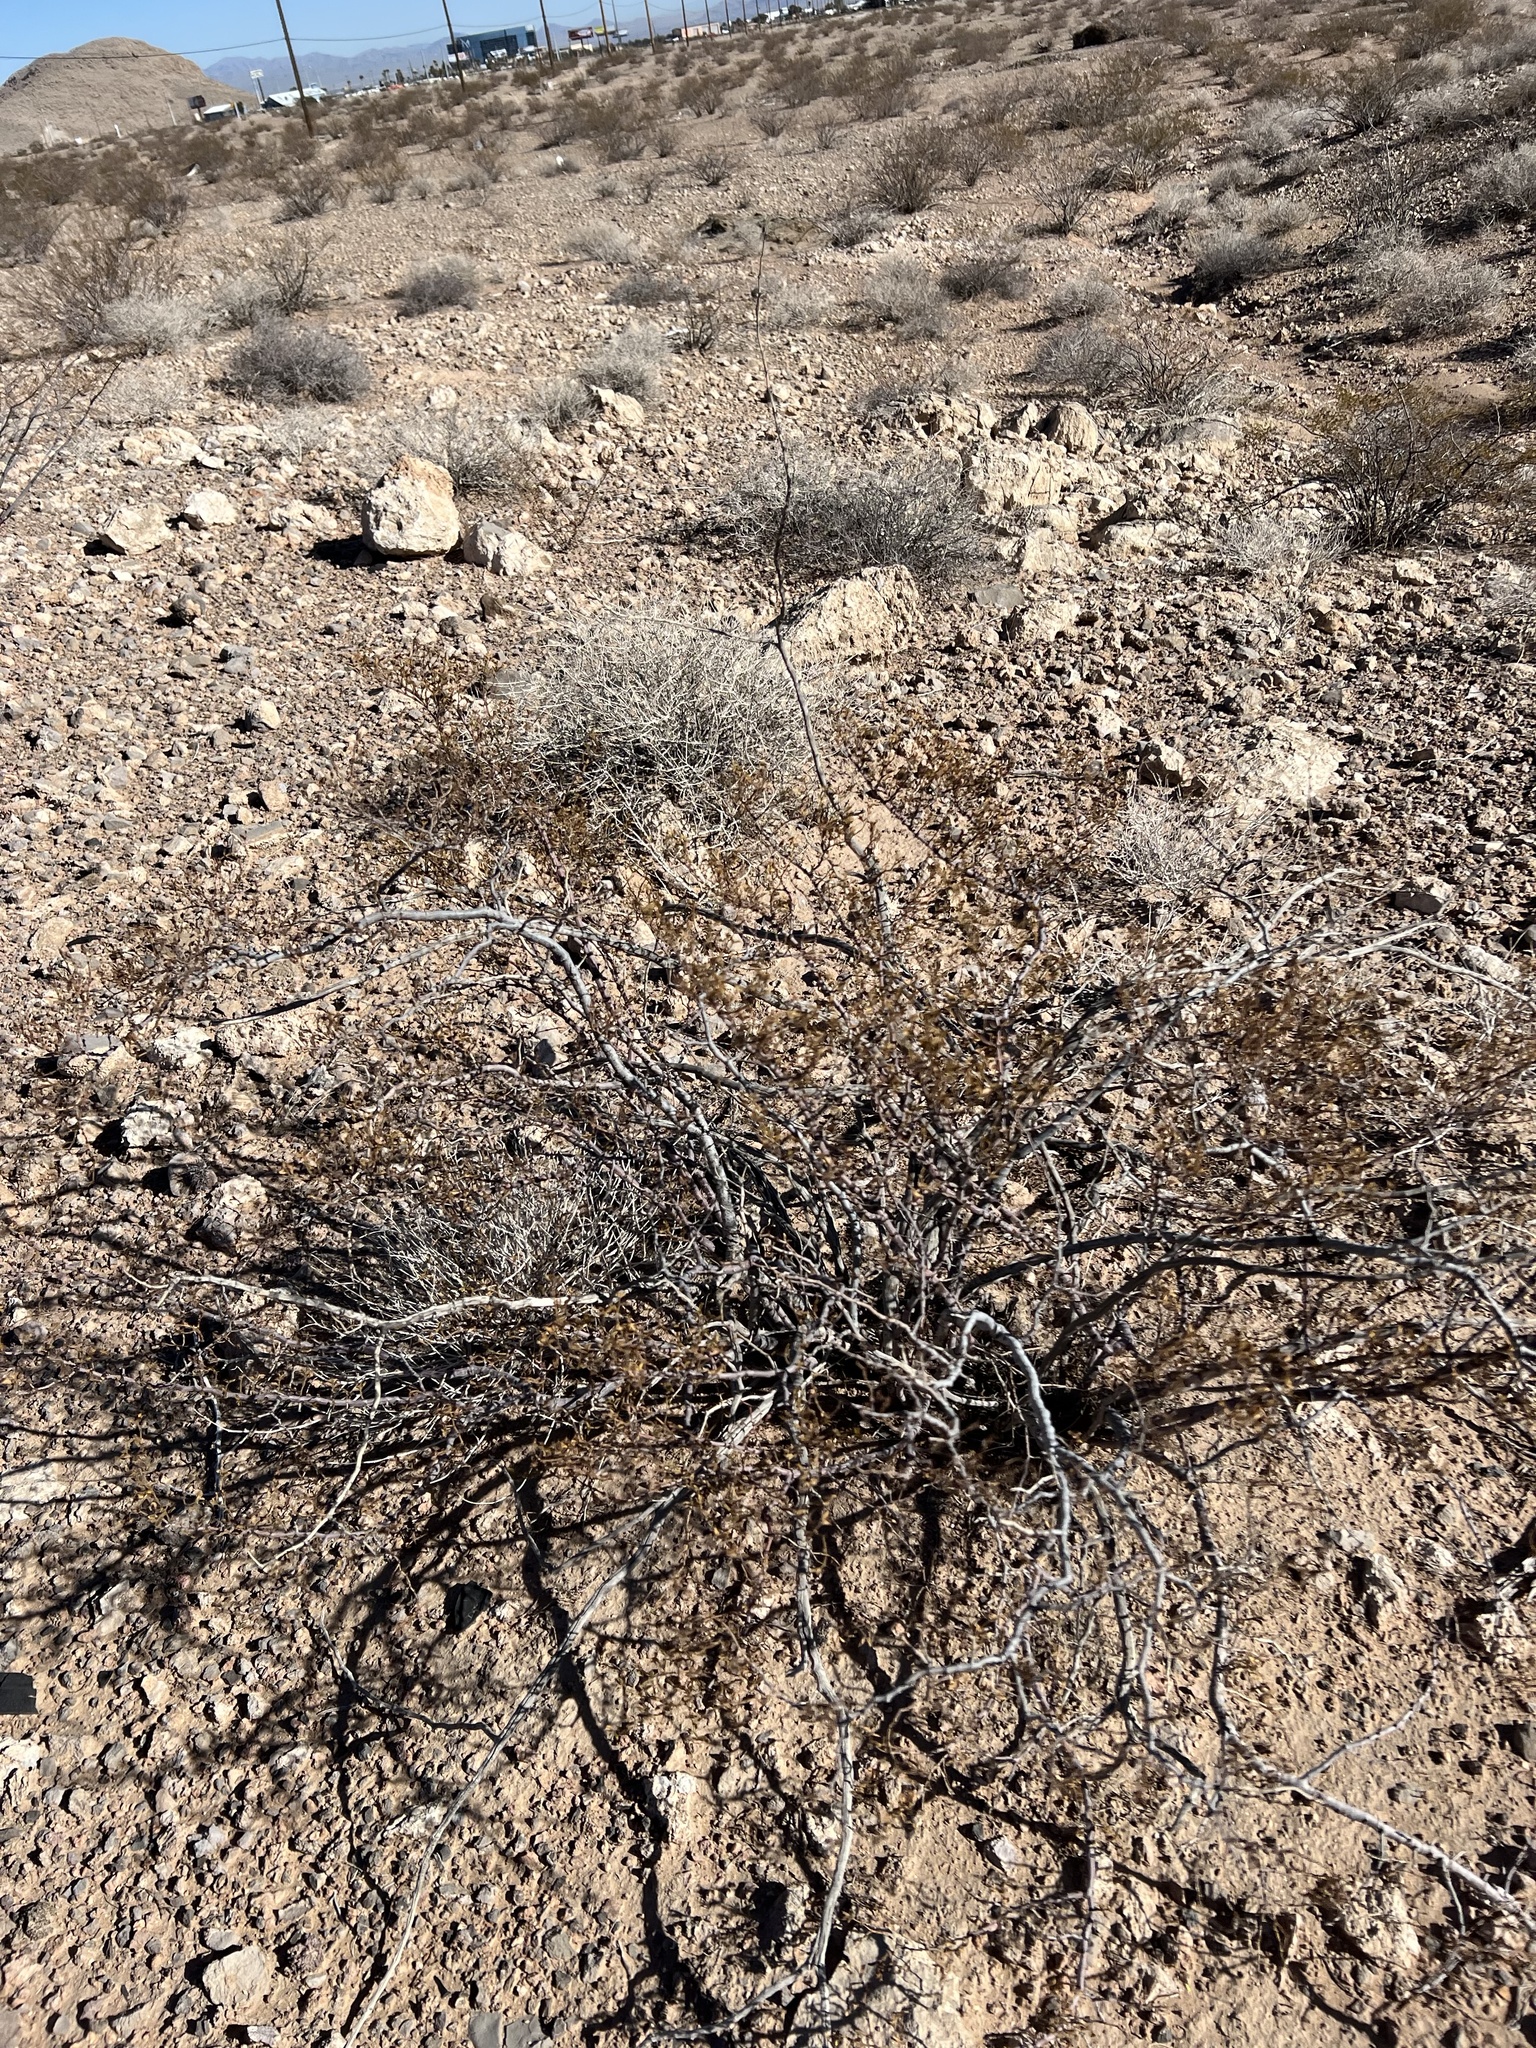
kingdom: Plantae
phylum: Tracheophyta
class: Magnoliopsida
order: Zygophyllales
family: Zygophyllaceae
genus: Larrea
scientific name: Larrea tridentata
